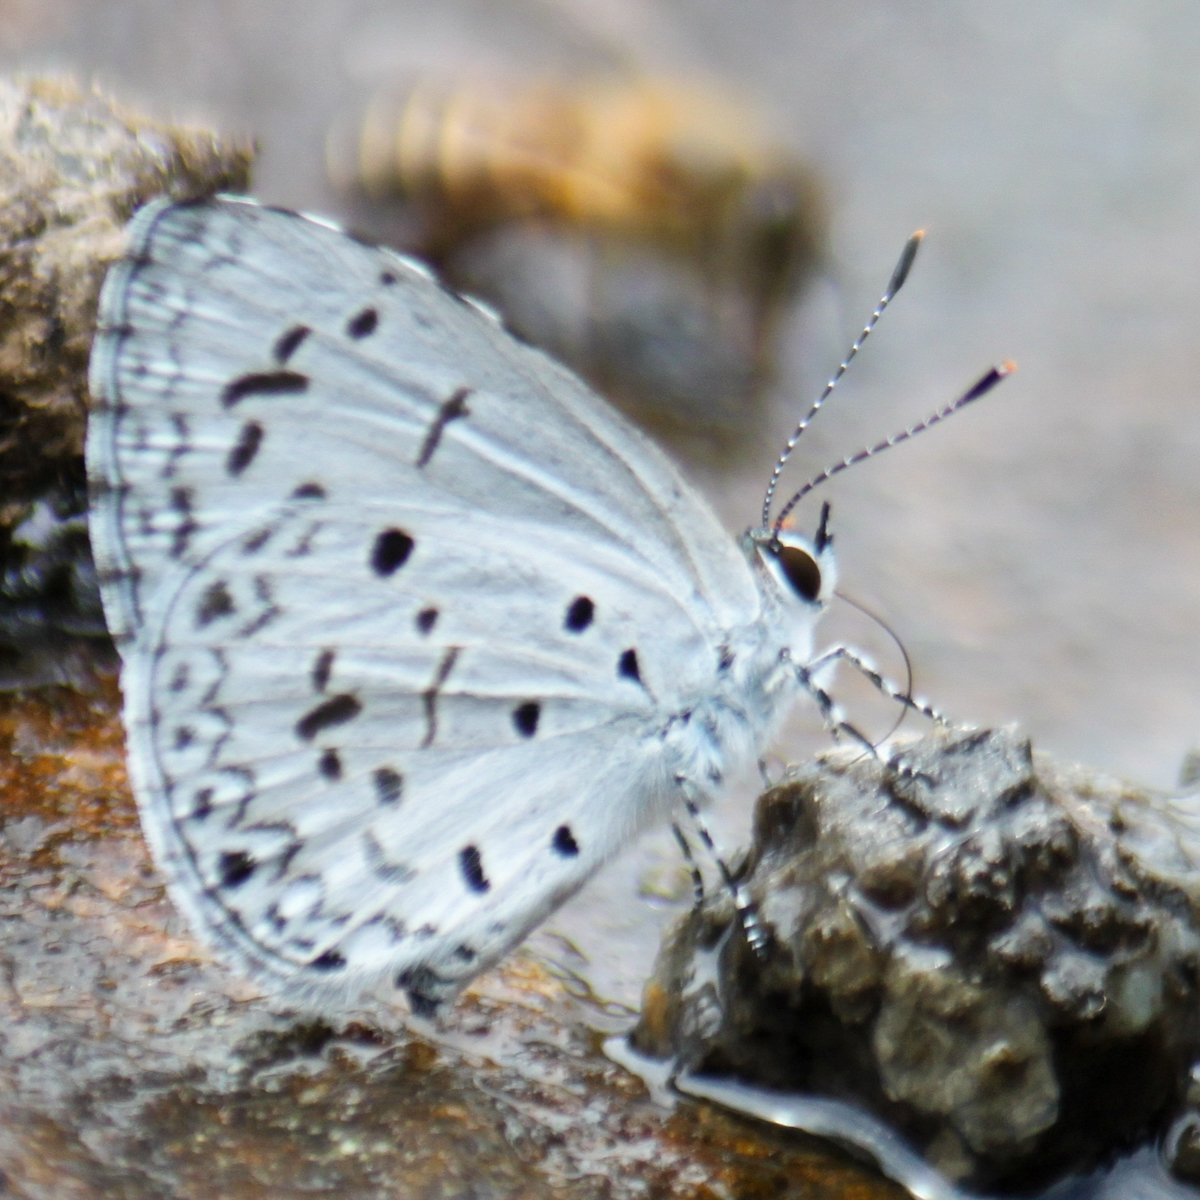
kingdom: Animalia
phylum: Arthropoda
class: Insecta
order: Lepidoptera
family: Lycaenidae
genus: Acytolepis
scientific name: Acytolepis puspa
